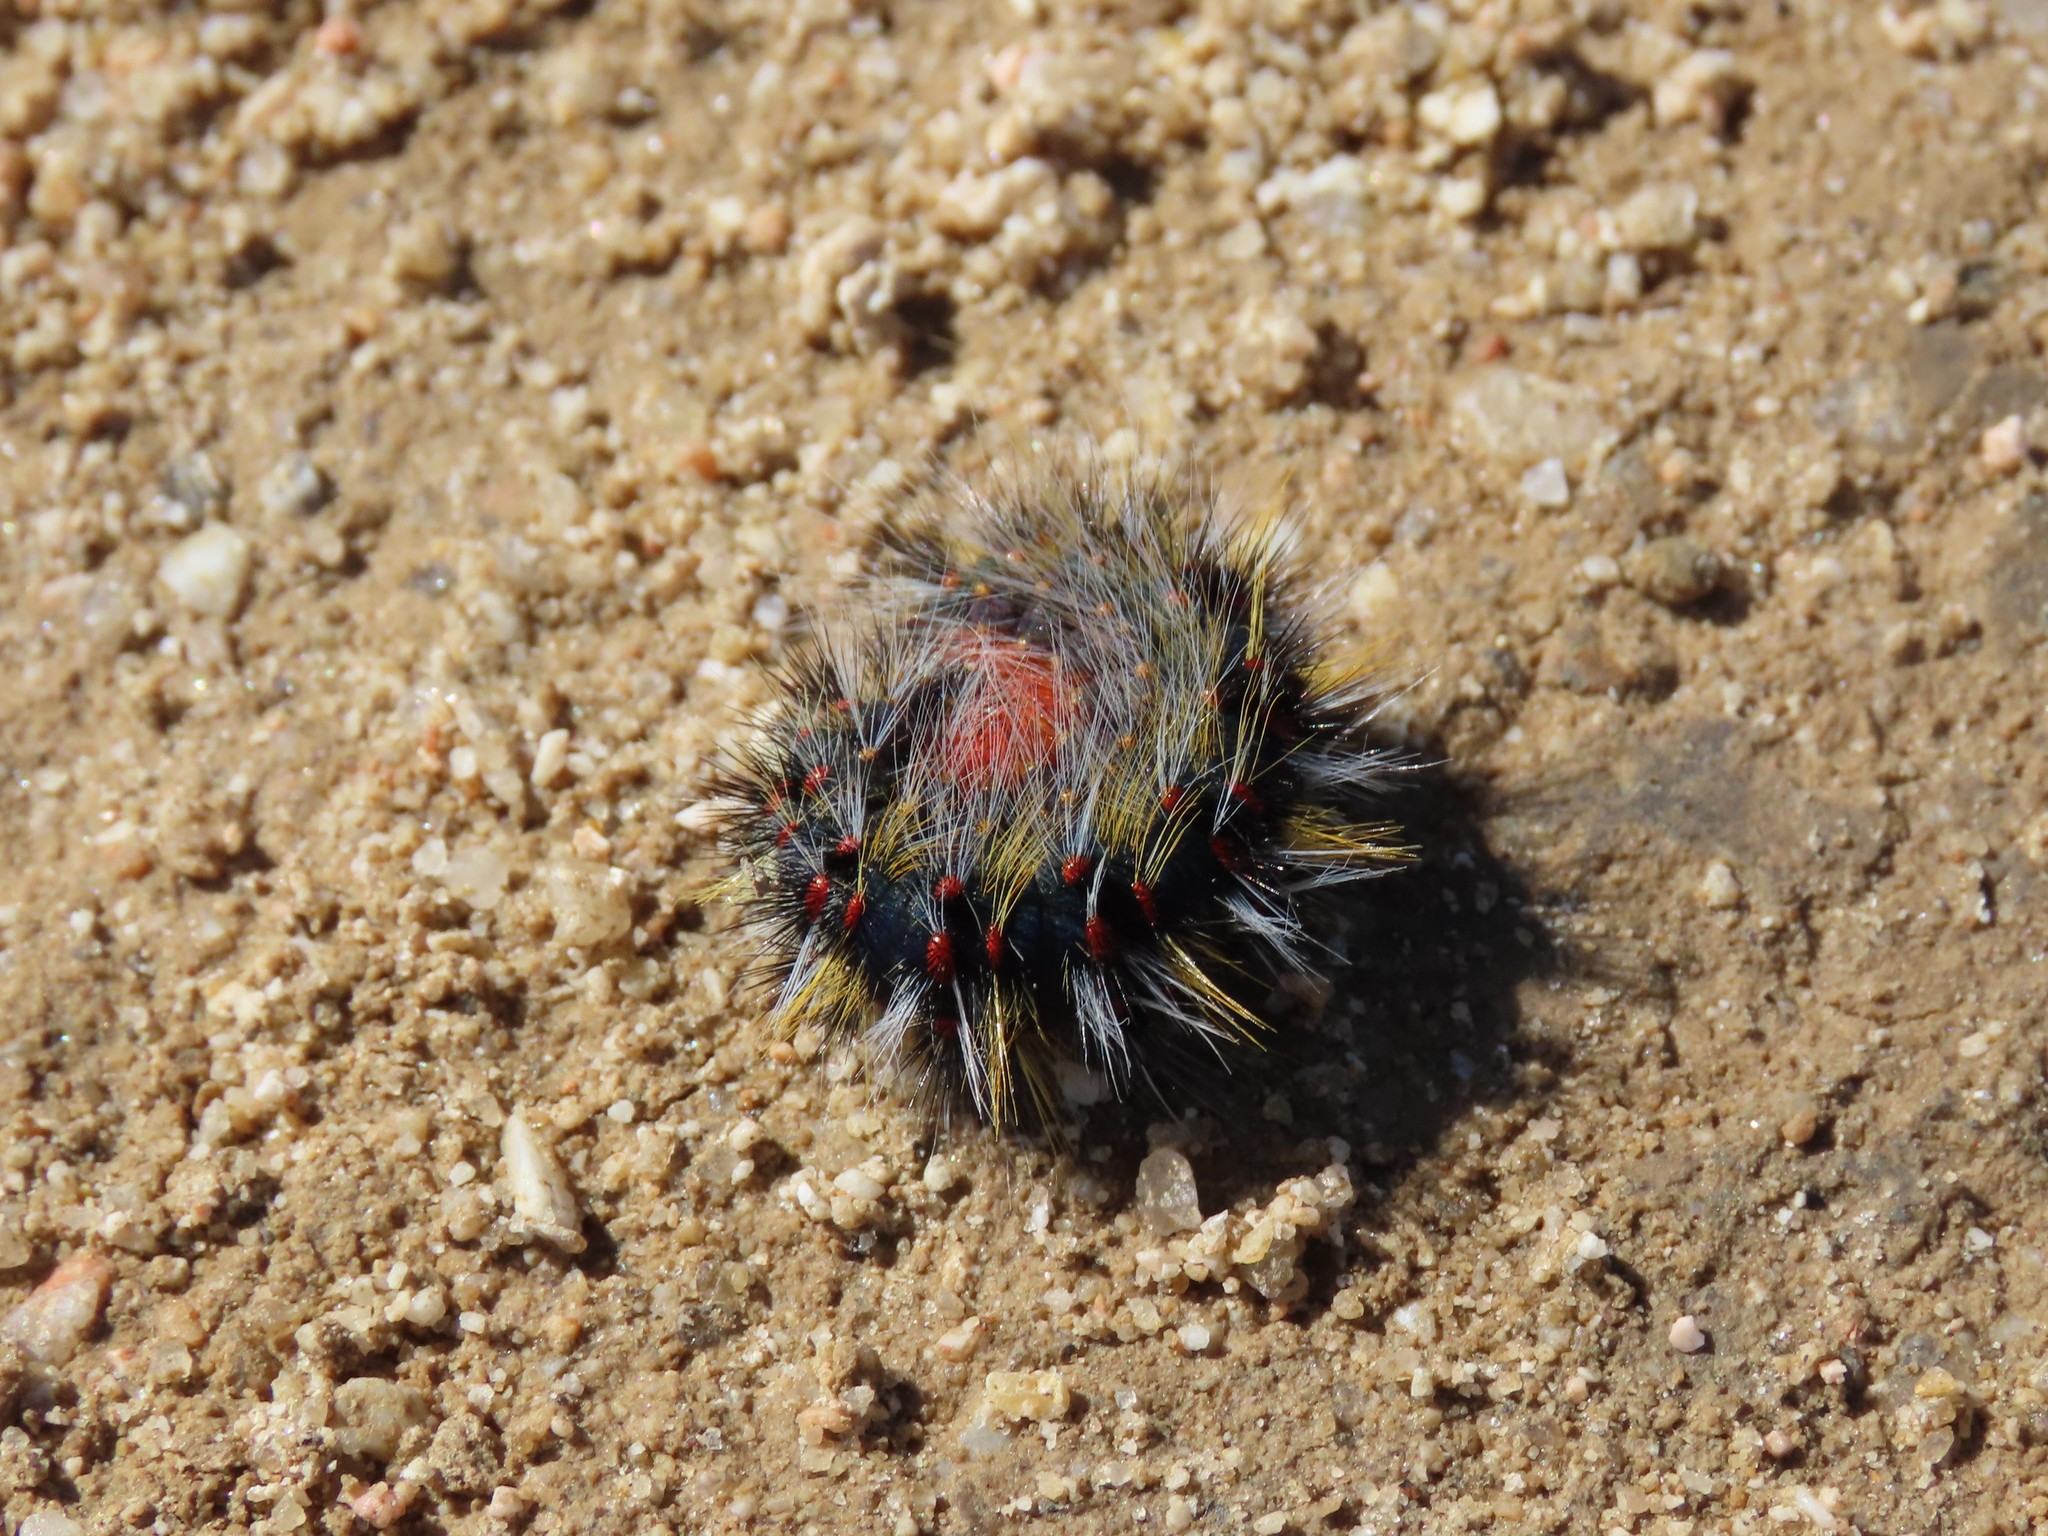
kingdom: Animalia
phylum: Arthropoda
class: Insecta
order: Lepidoptera
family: Lasiocampidae
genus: Chondrostega
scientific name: Chondrostega vandalicia
